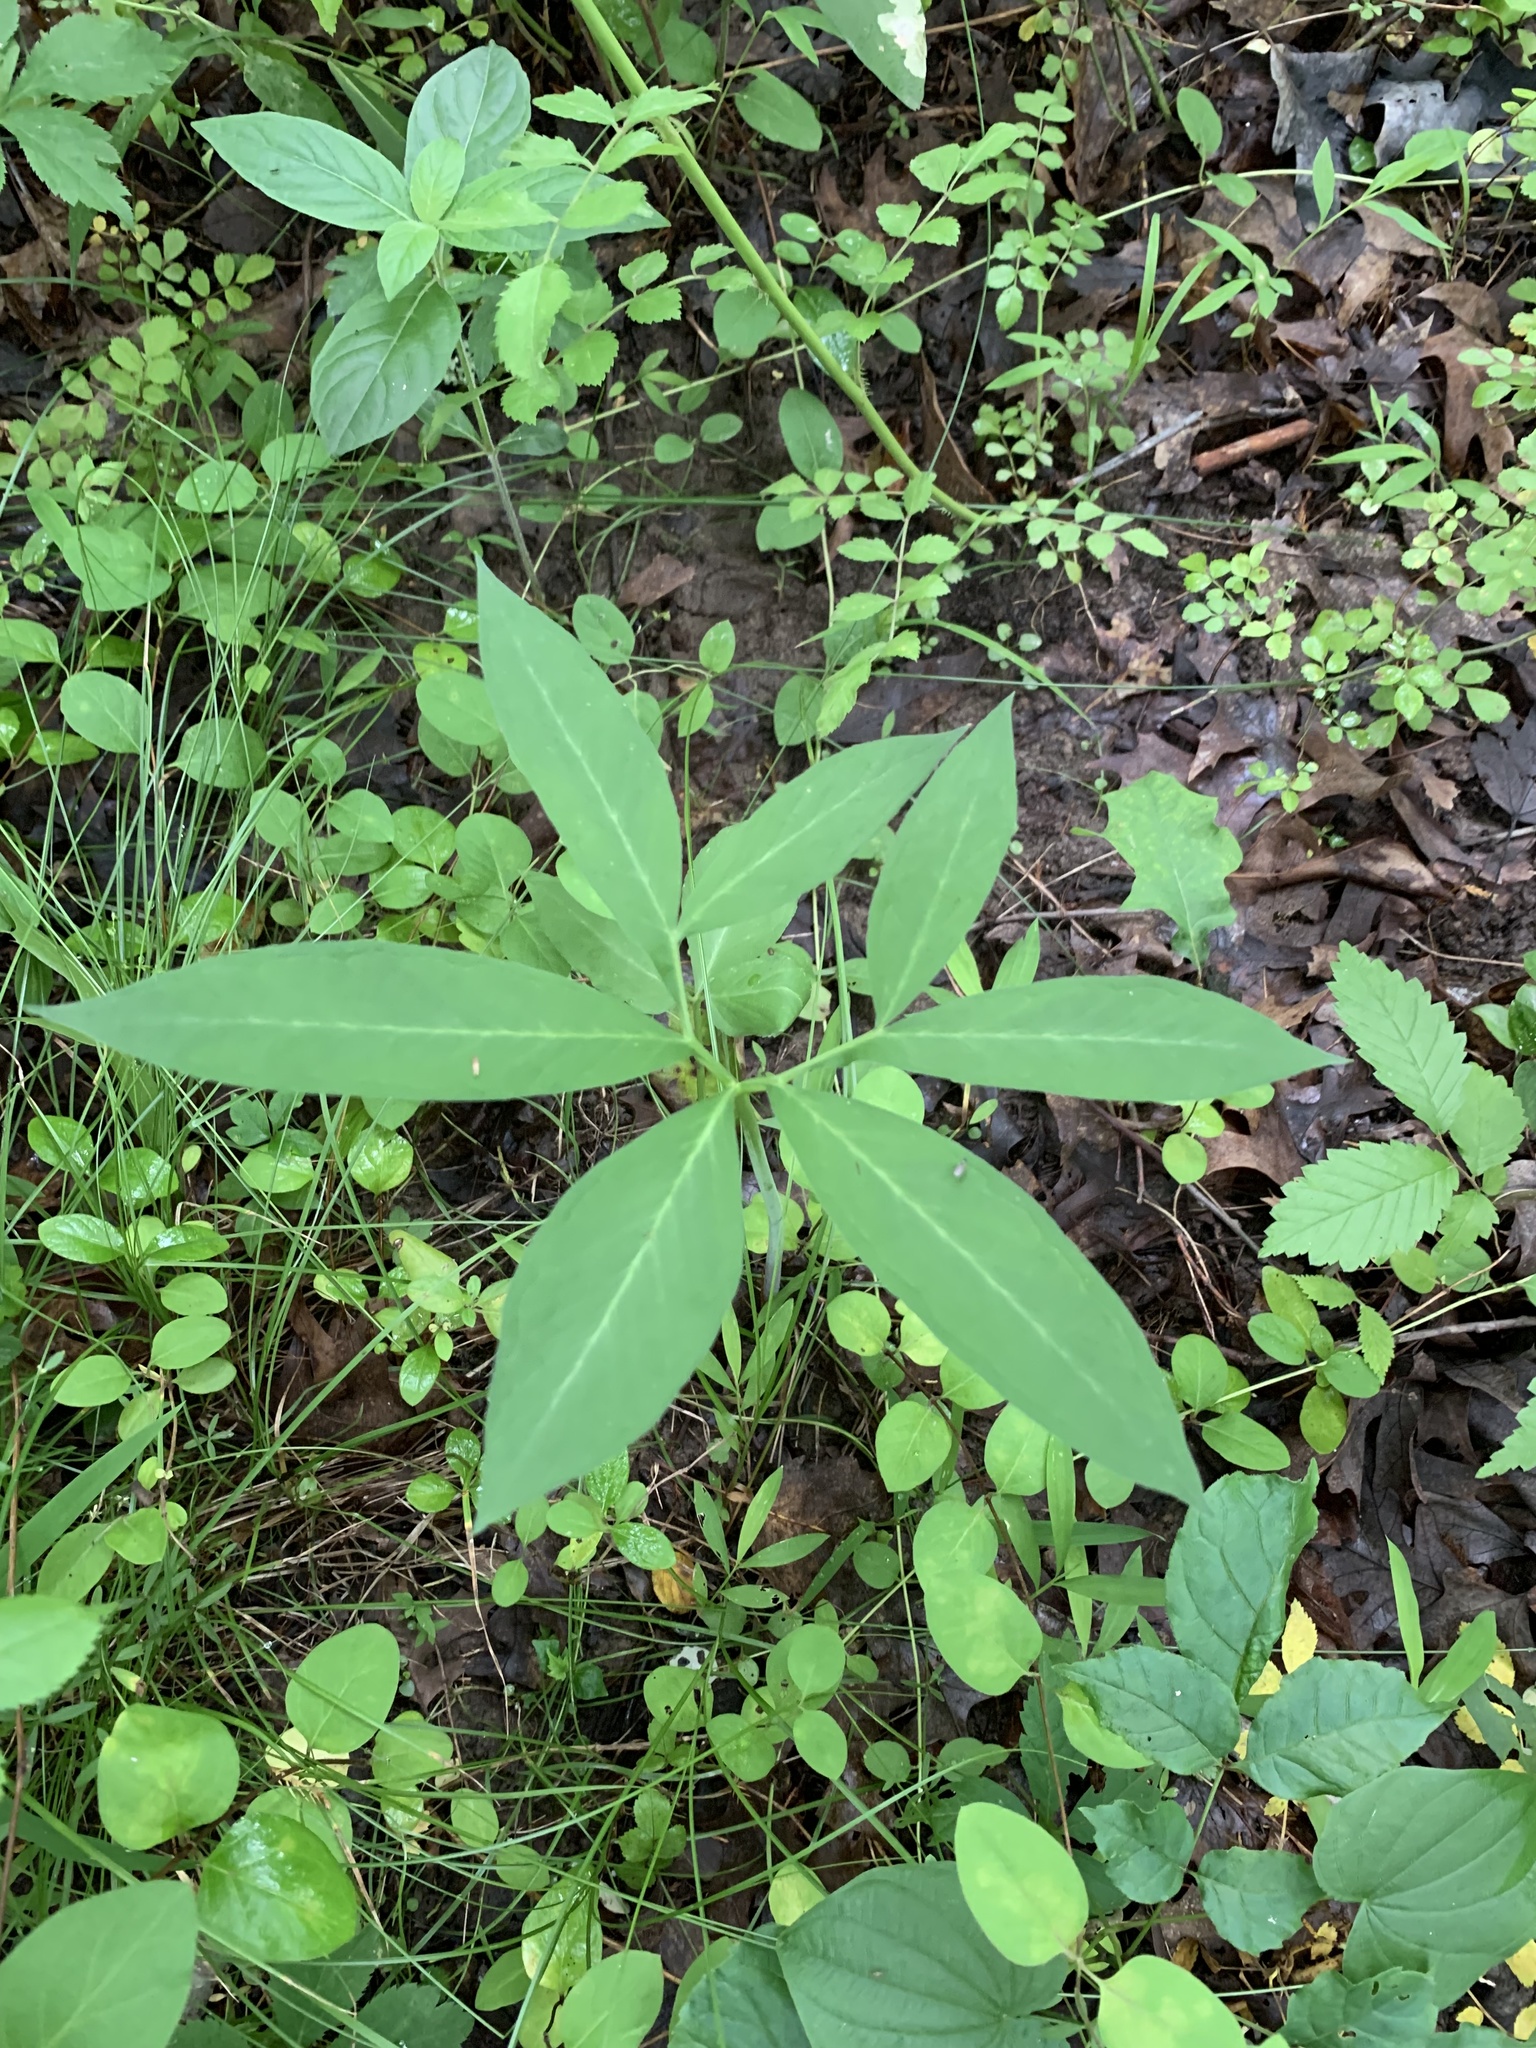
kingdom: Plantae
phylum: Tracheophyta
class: Liliopsida
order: Alismatales
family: Araceae
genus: Arisaema
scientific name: Arisaema dracontium
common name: Dragon-arum
